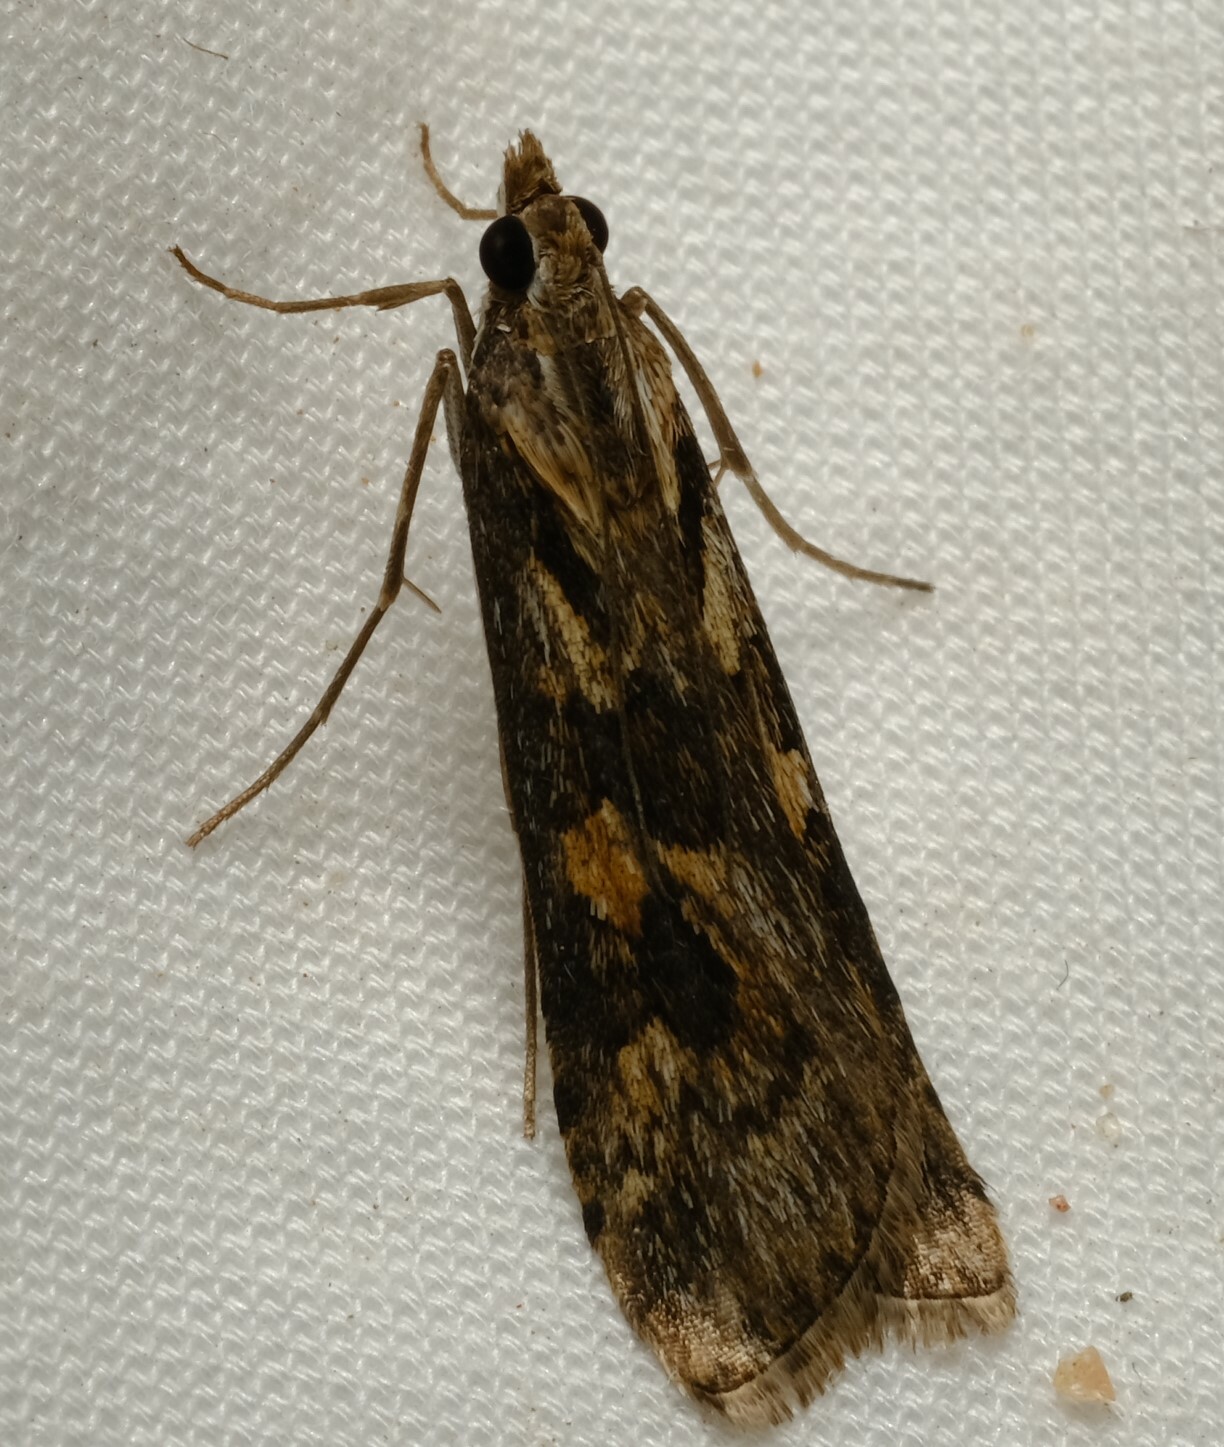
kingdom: Animalia
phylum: Arthropoda
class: Insecta
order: Lepidoptera
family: Crambidae
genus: Nomophila
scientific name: Nomophila corticalis
